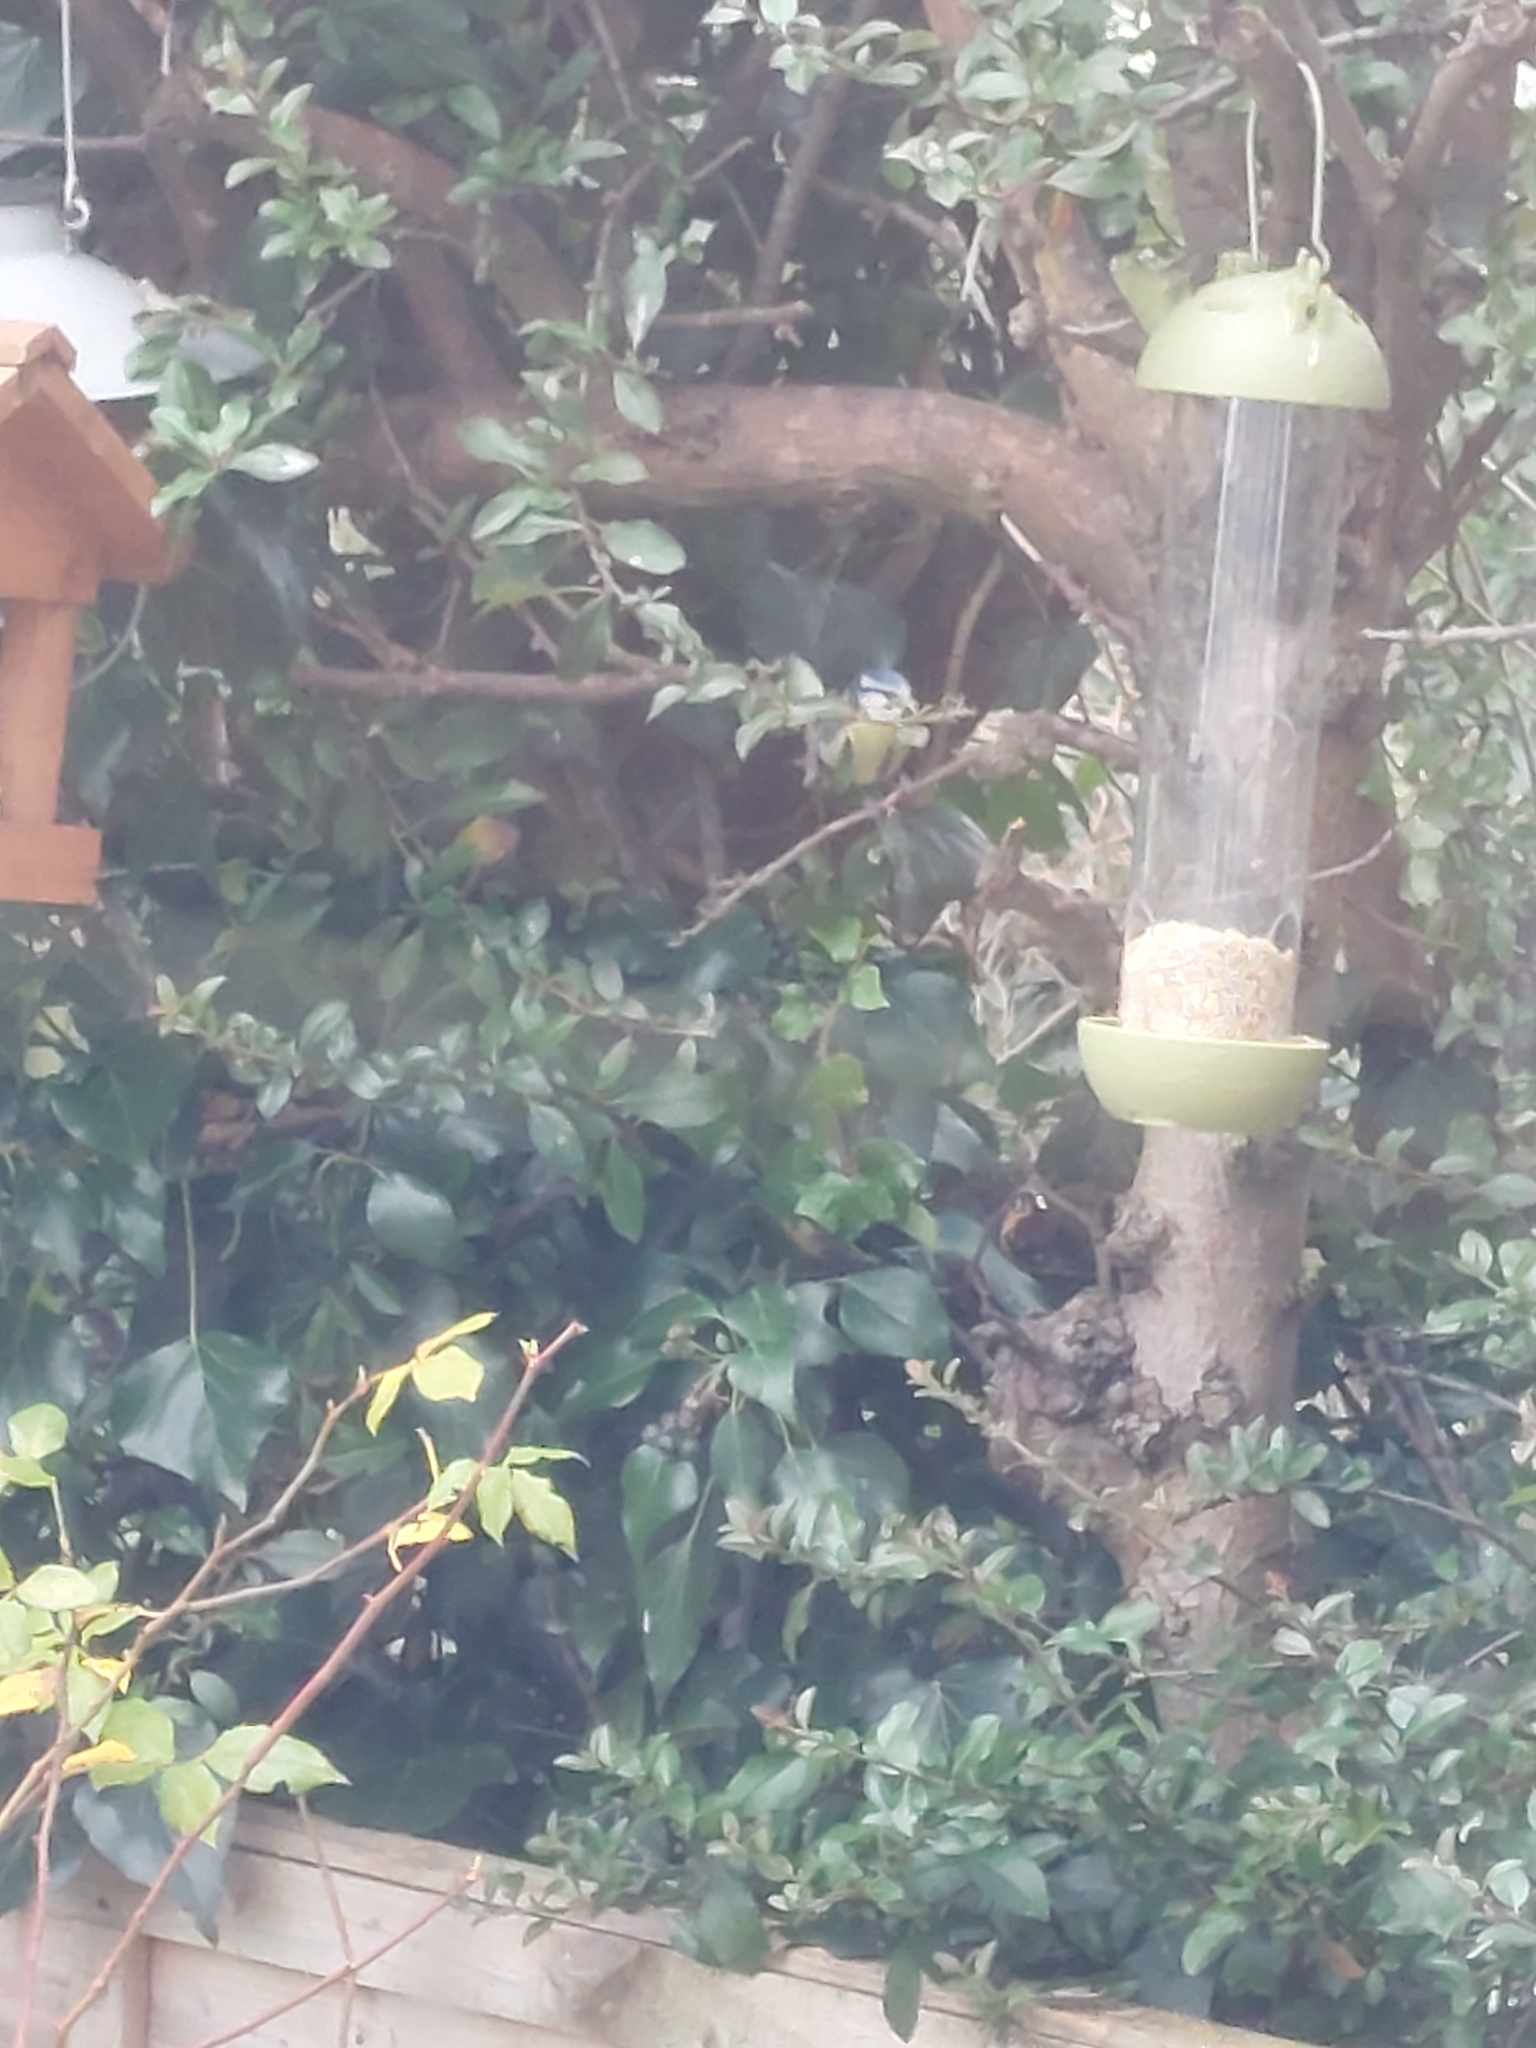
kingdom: Animalia
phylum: Chordata
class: Aves
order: Passeriformes
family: Paridae
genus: Cyanistes
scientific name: Cyanistes caeruleus
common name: Eurasian blue tit
